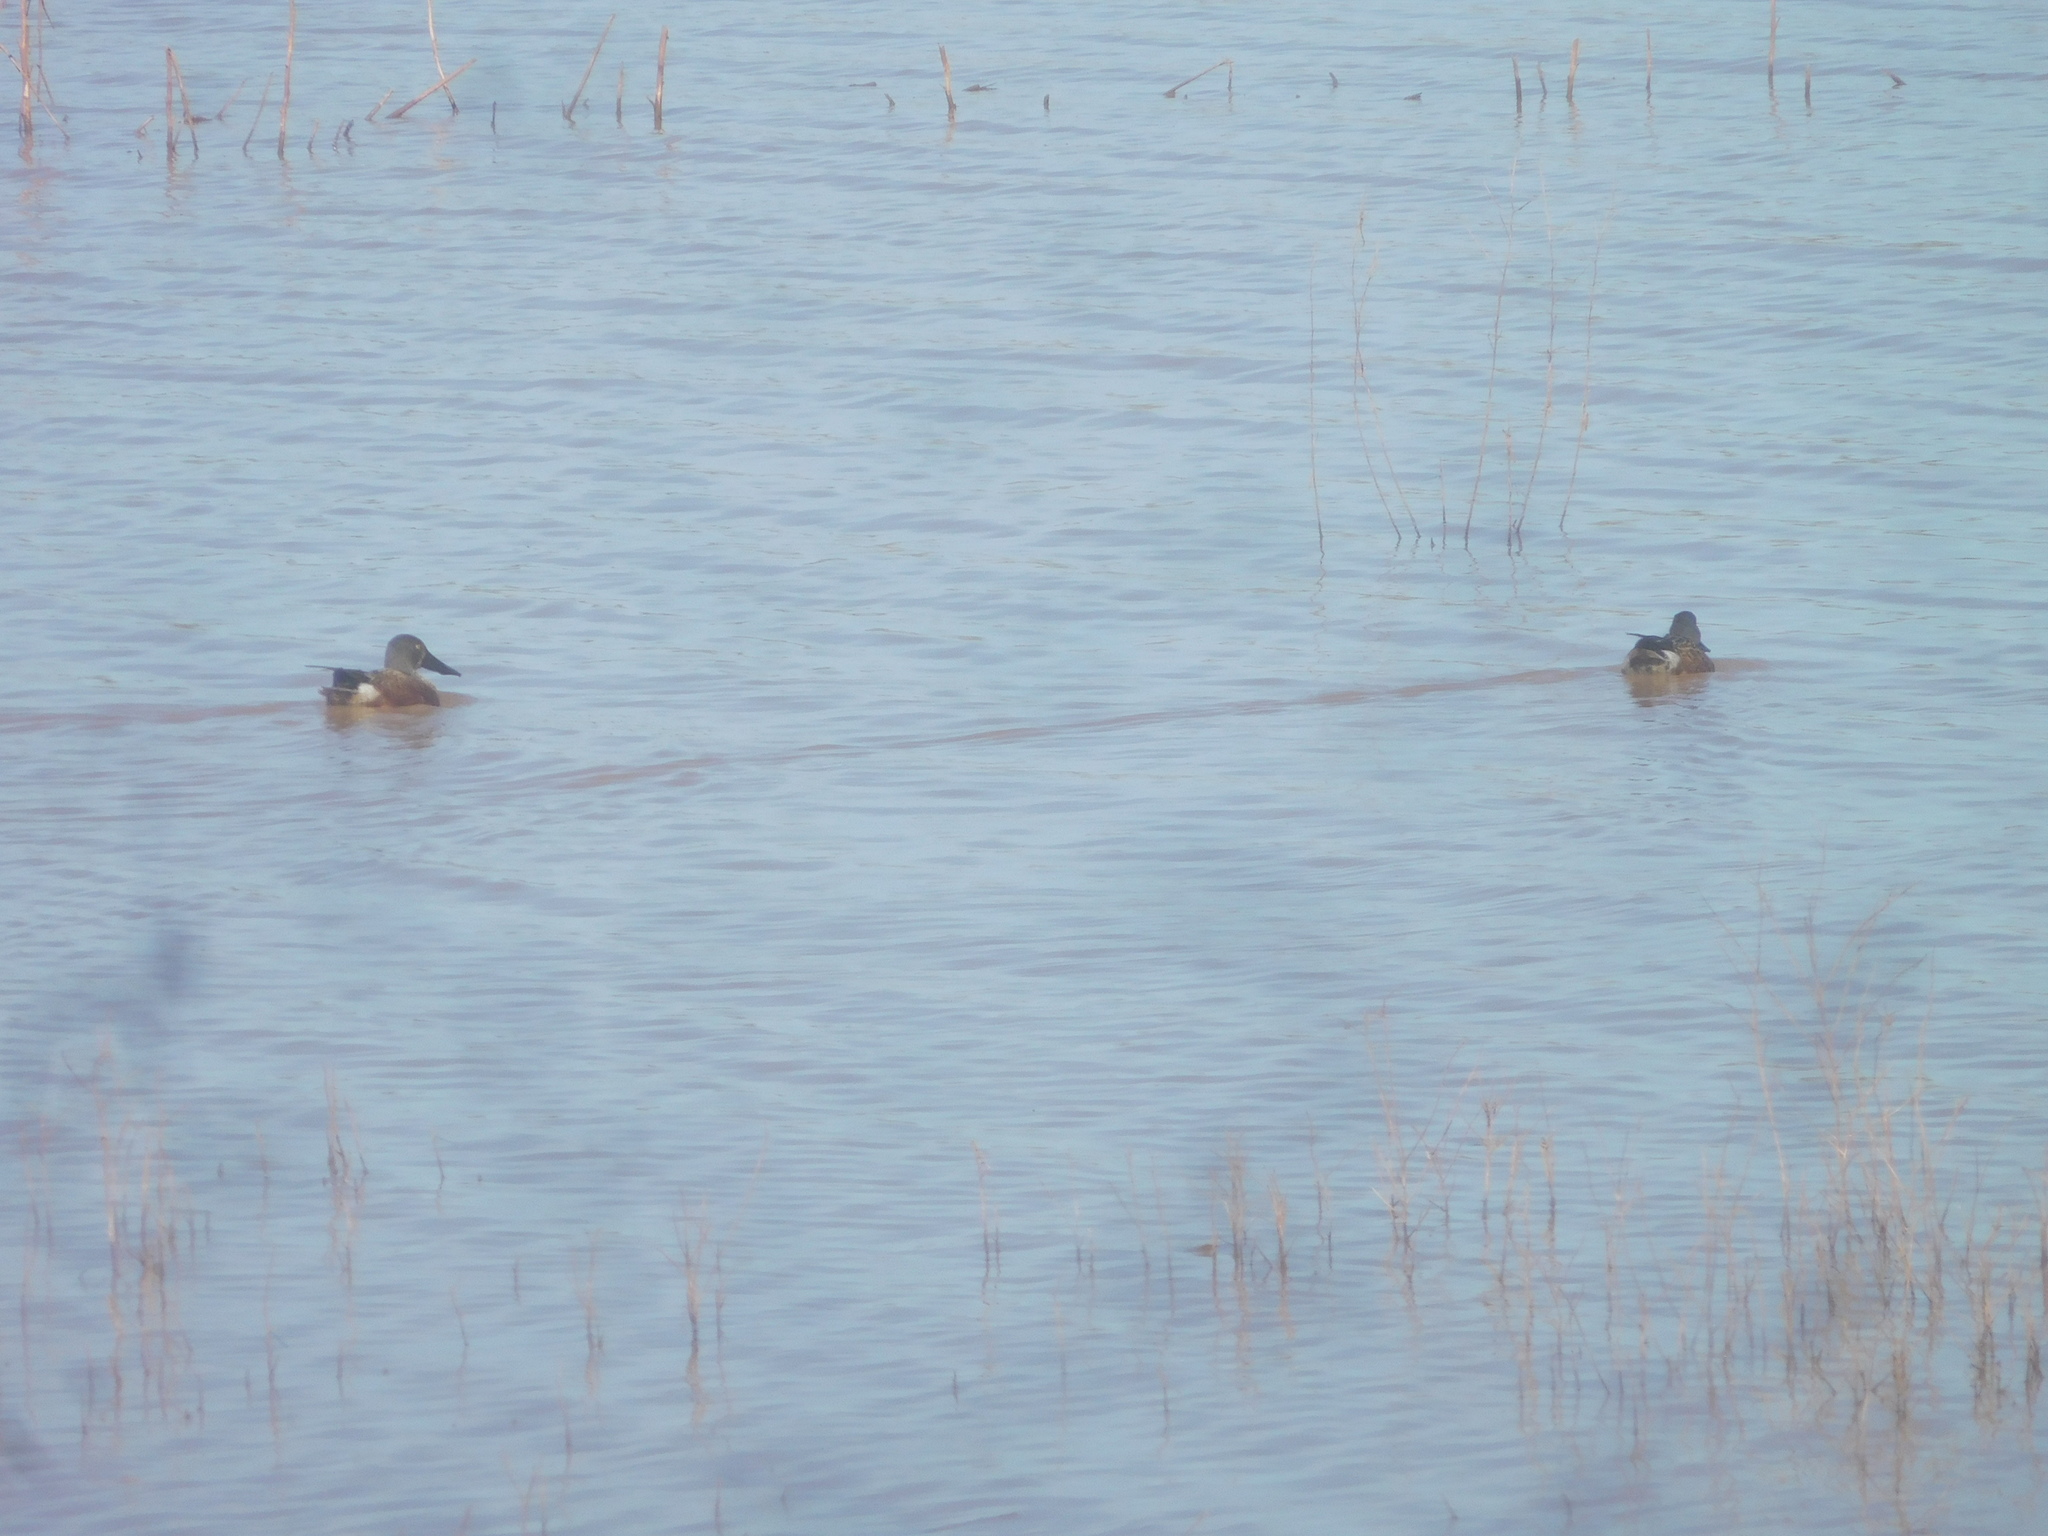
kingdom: Animalia
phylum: Chordata
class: Aves
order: Anseriformes
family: Anatidae
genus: Spatula
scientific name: Spatula clypeata
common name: Northern shoveler
